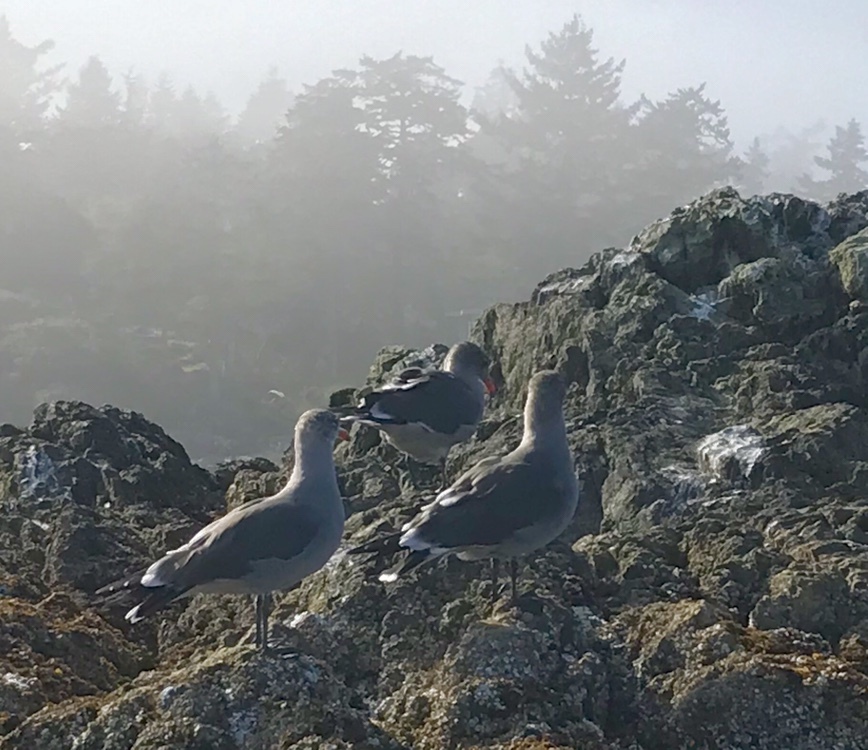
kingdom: Animalia
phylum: Chordata
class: Aves
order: Charadriiformes
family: Laridae
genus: Larus
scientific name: Larus heermanni
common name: Heermann's gull
